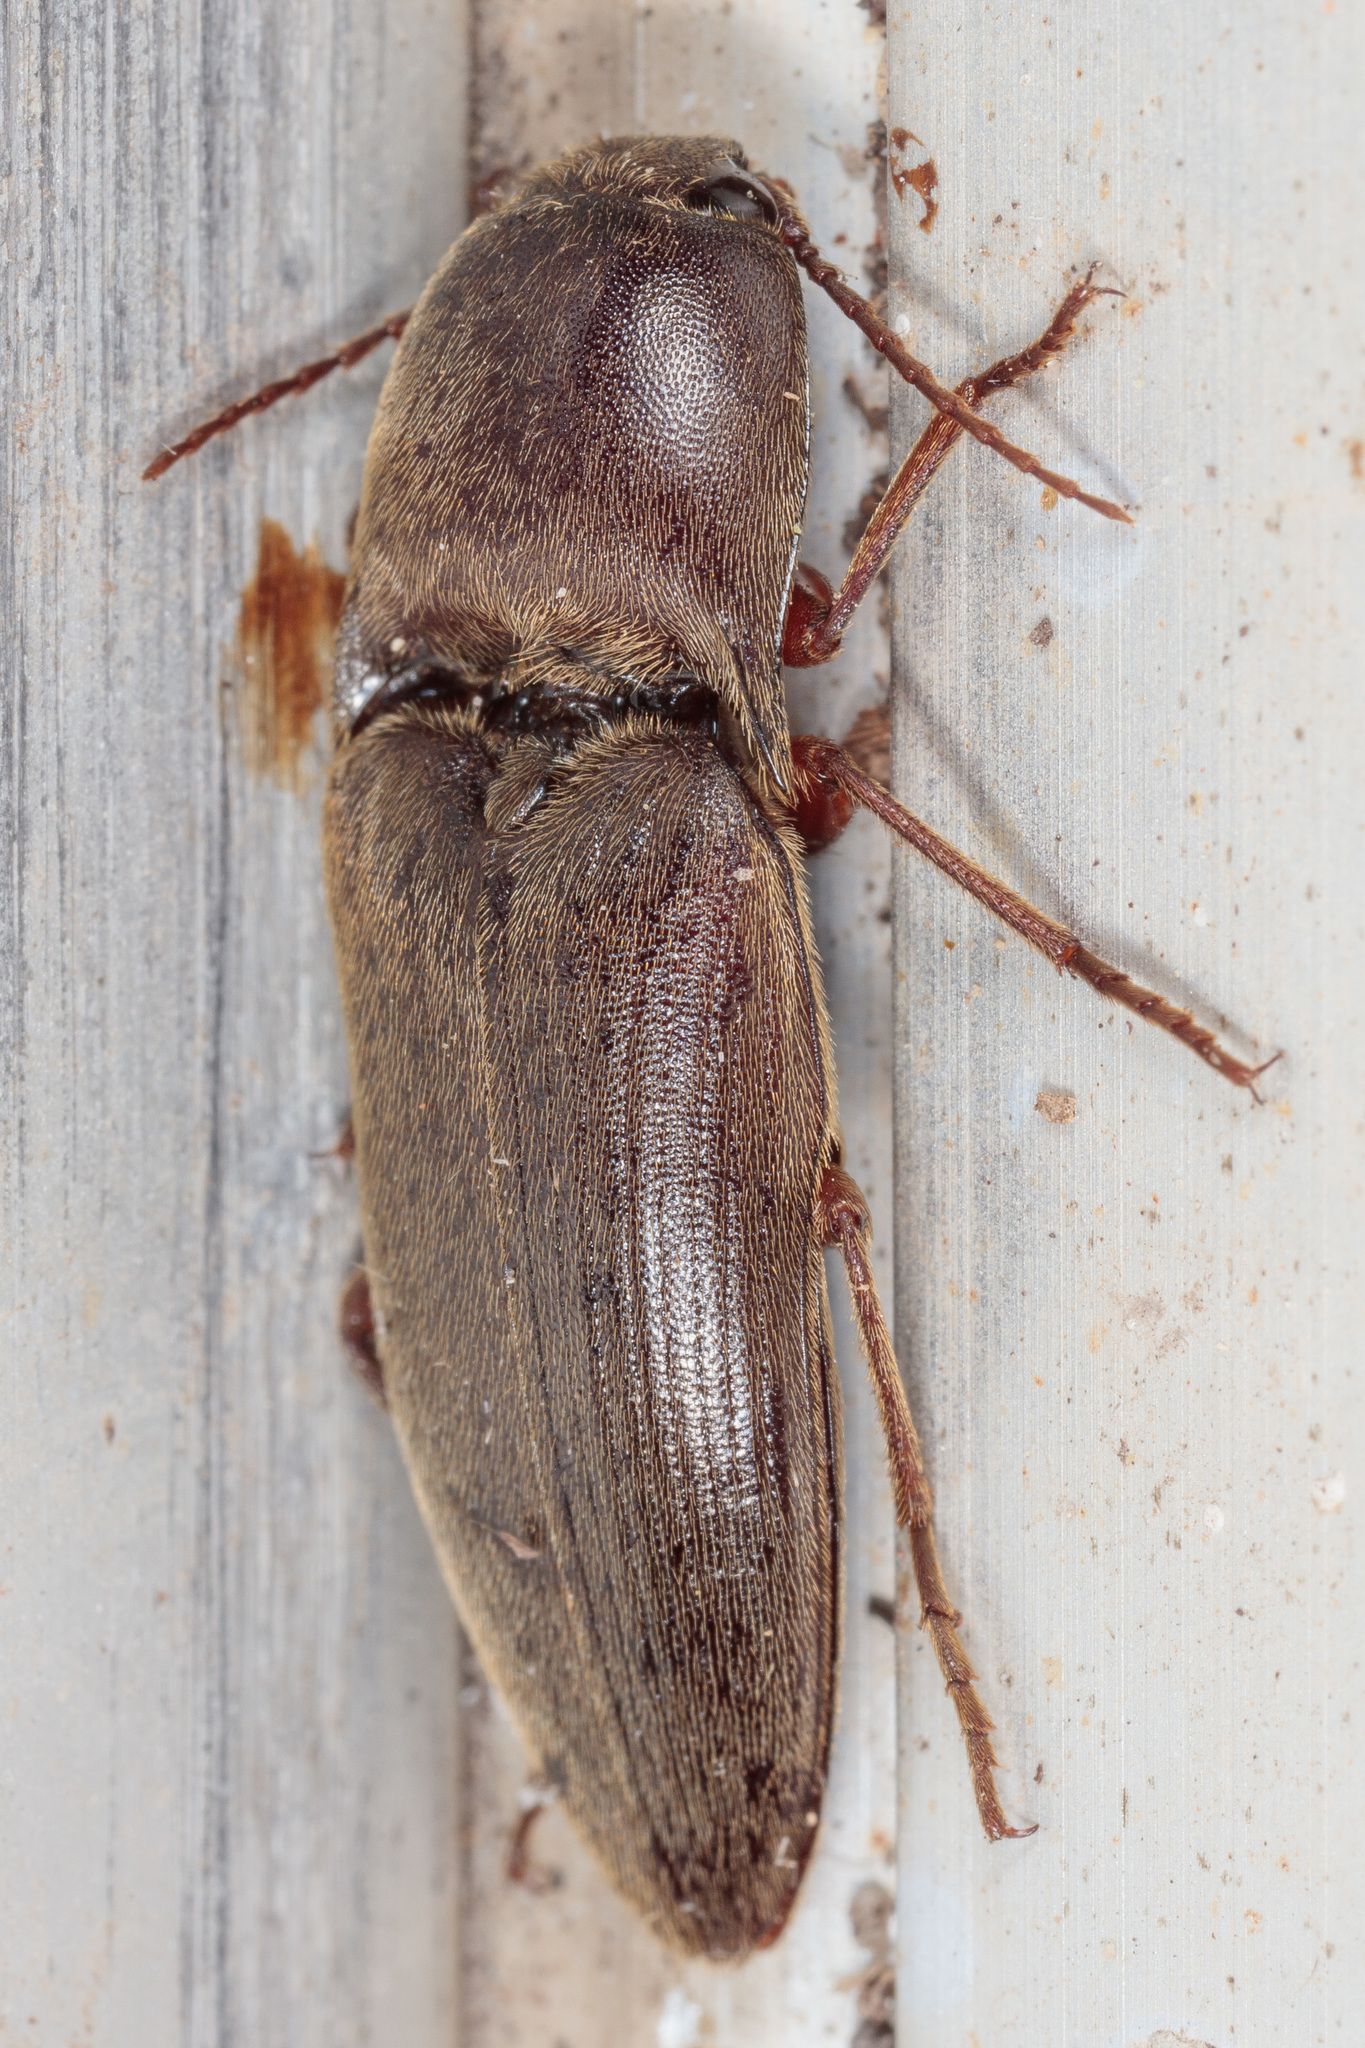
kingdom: Animalia
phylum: Arthropoda
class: Insecta
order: Coleoptera
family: Elateridae
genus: Diplostethus
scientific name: Diplostethus
